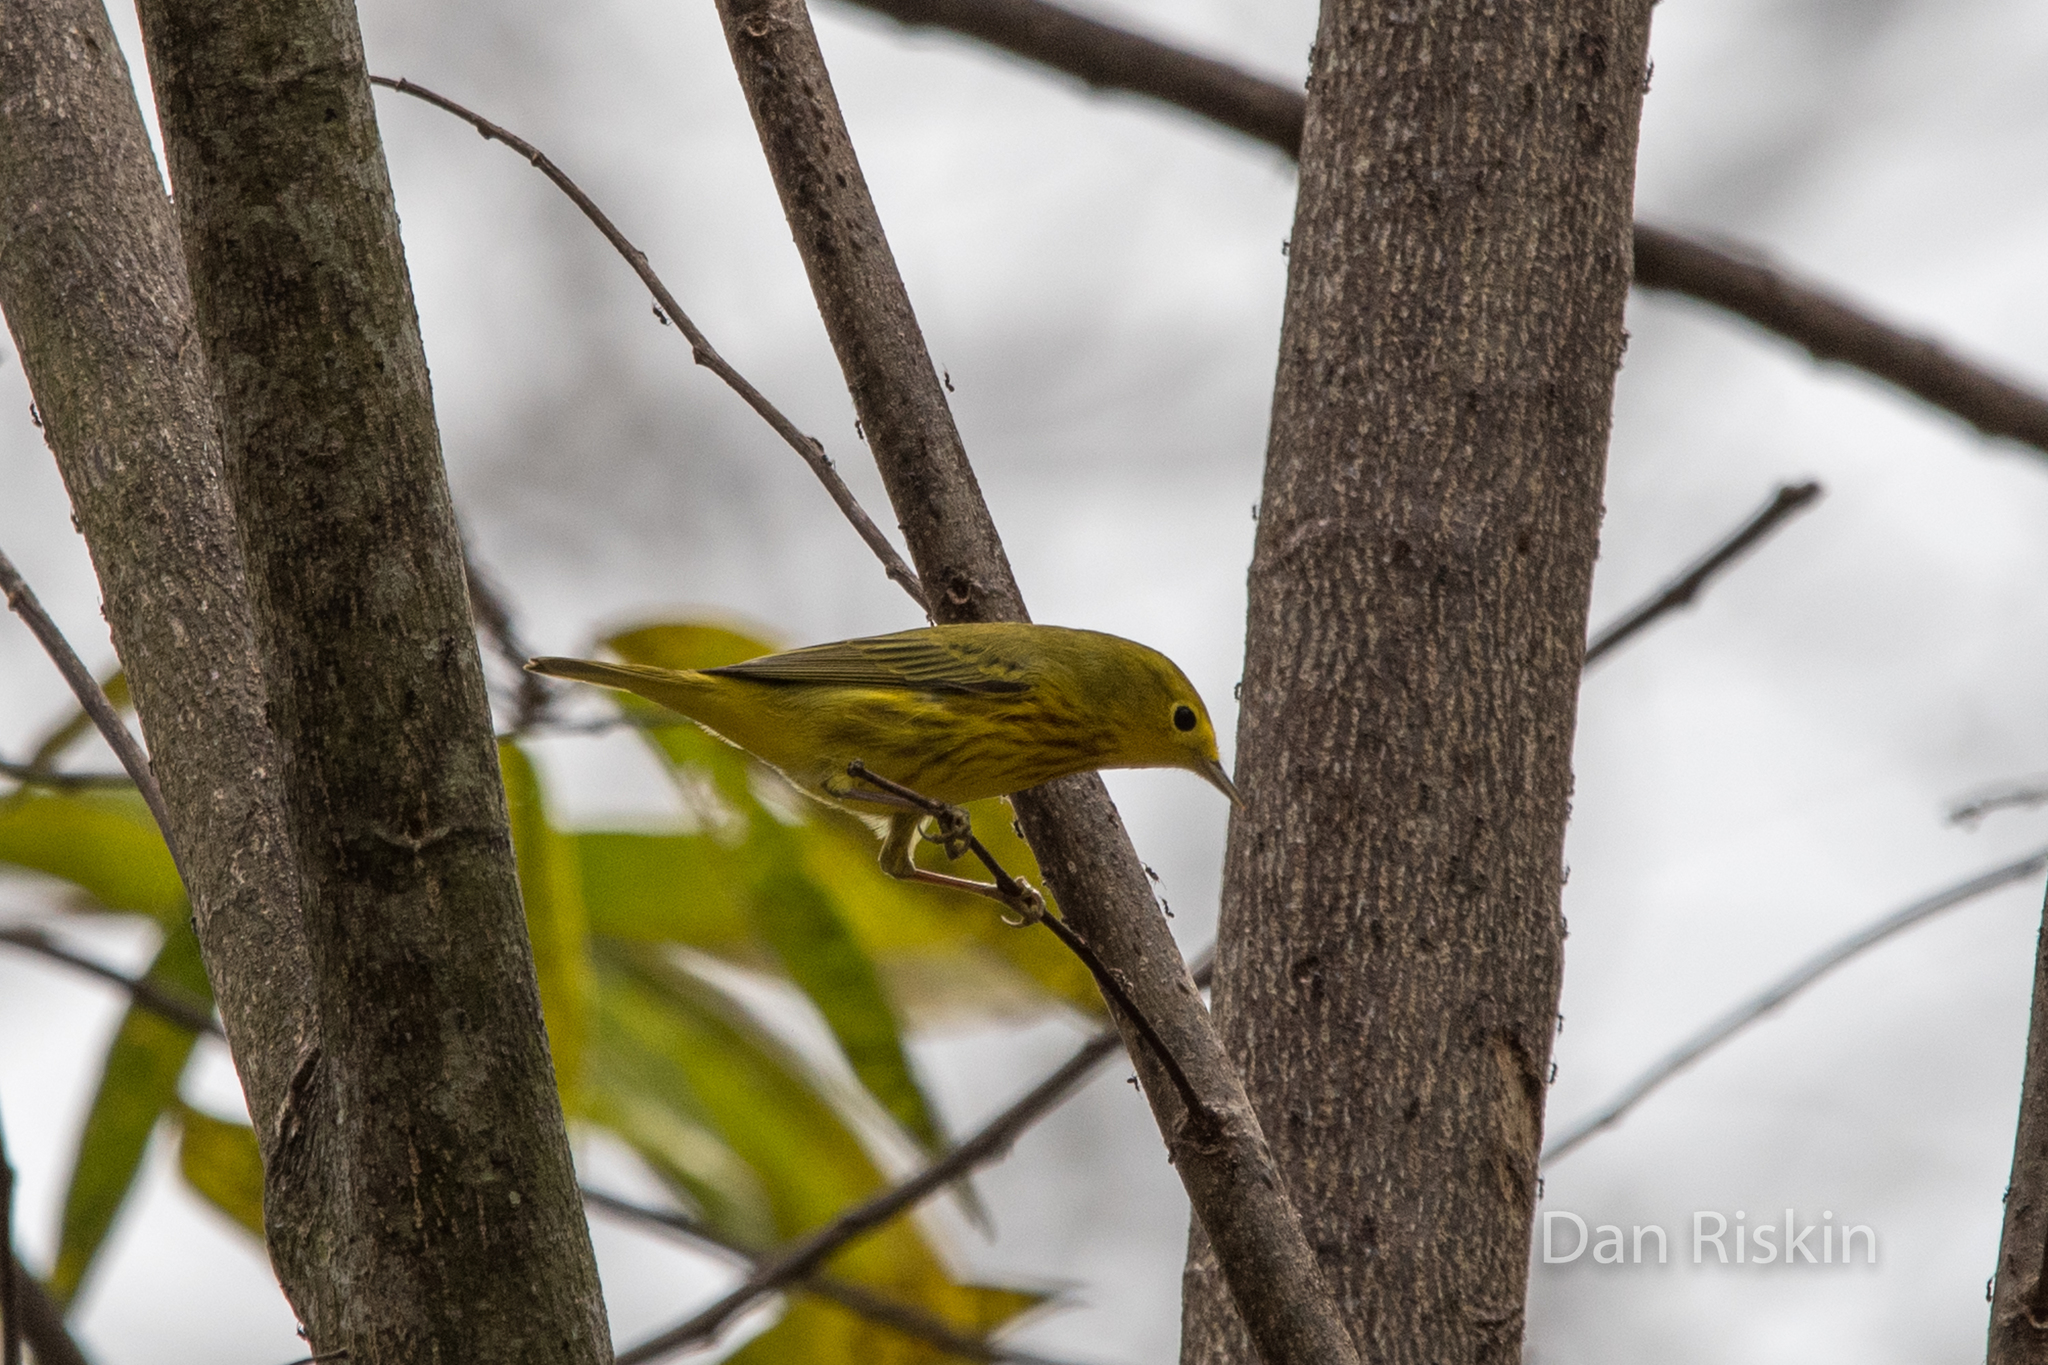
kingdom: Animalia
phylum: Chordata
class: Aves
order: Passeriformes
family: Parulidae
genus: Setophaga
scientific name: Setophaga petechia
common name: Yellow warbler
